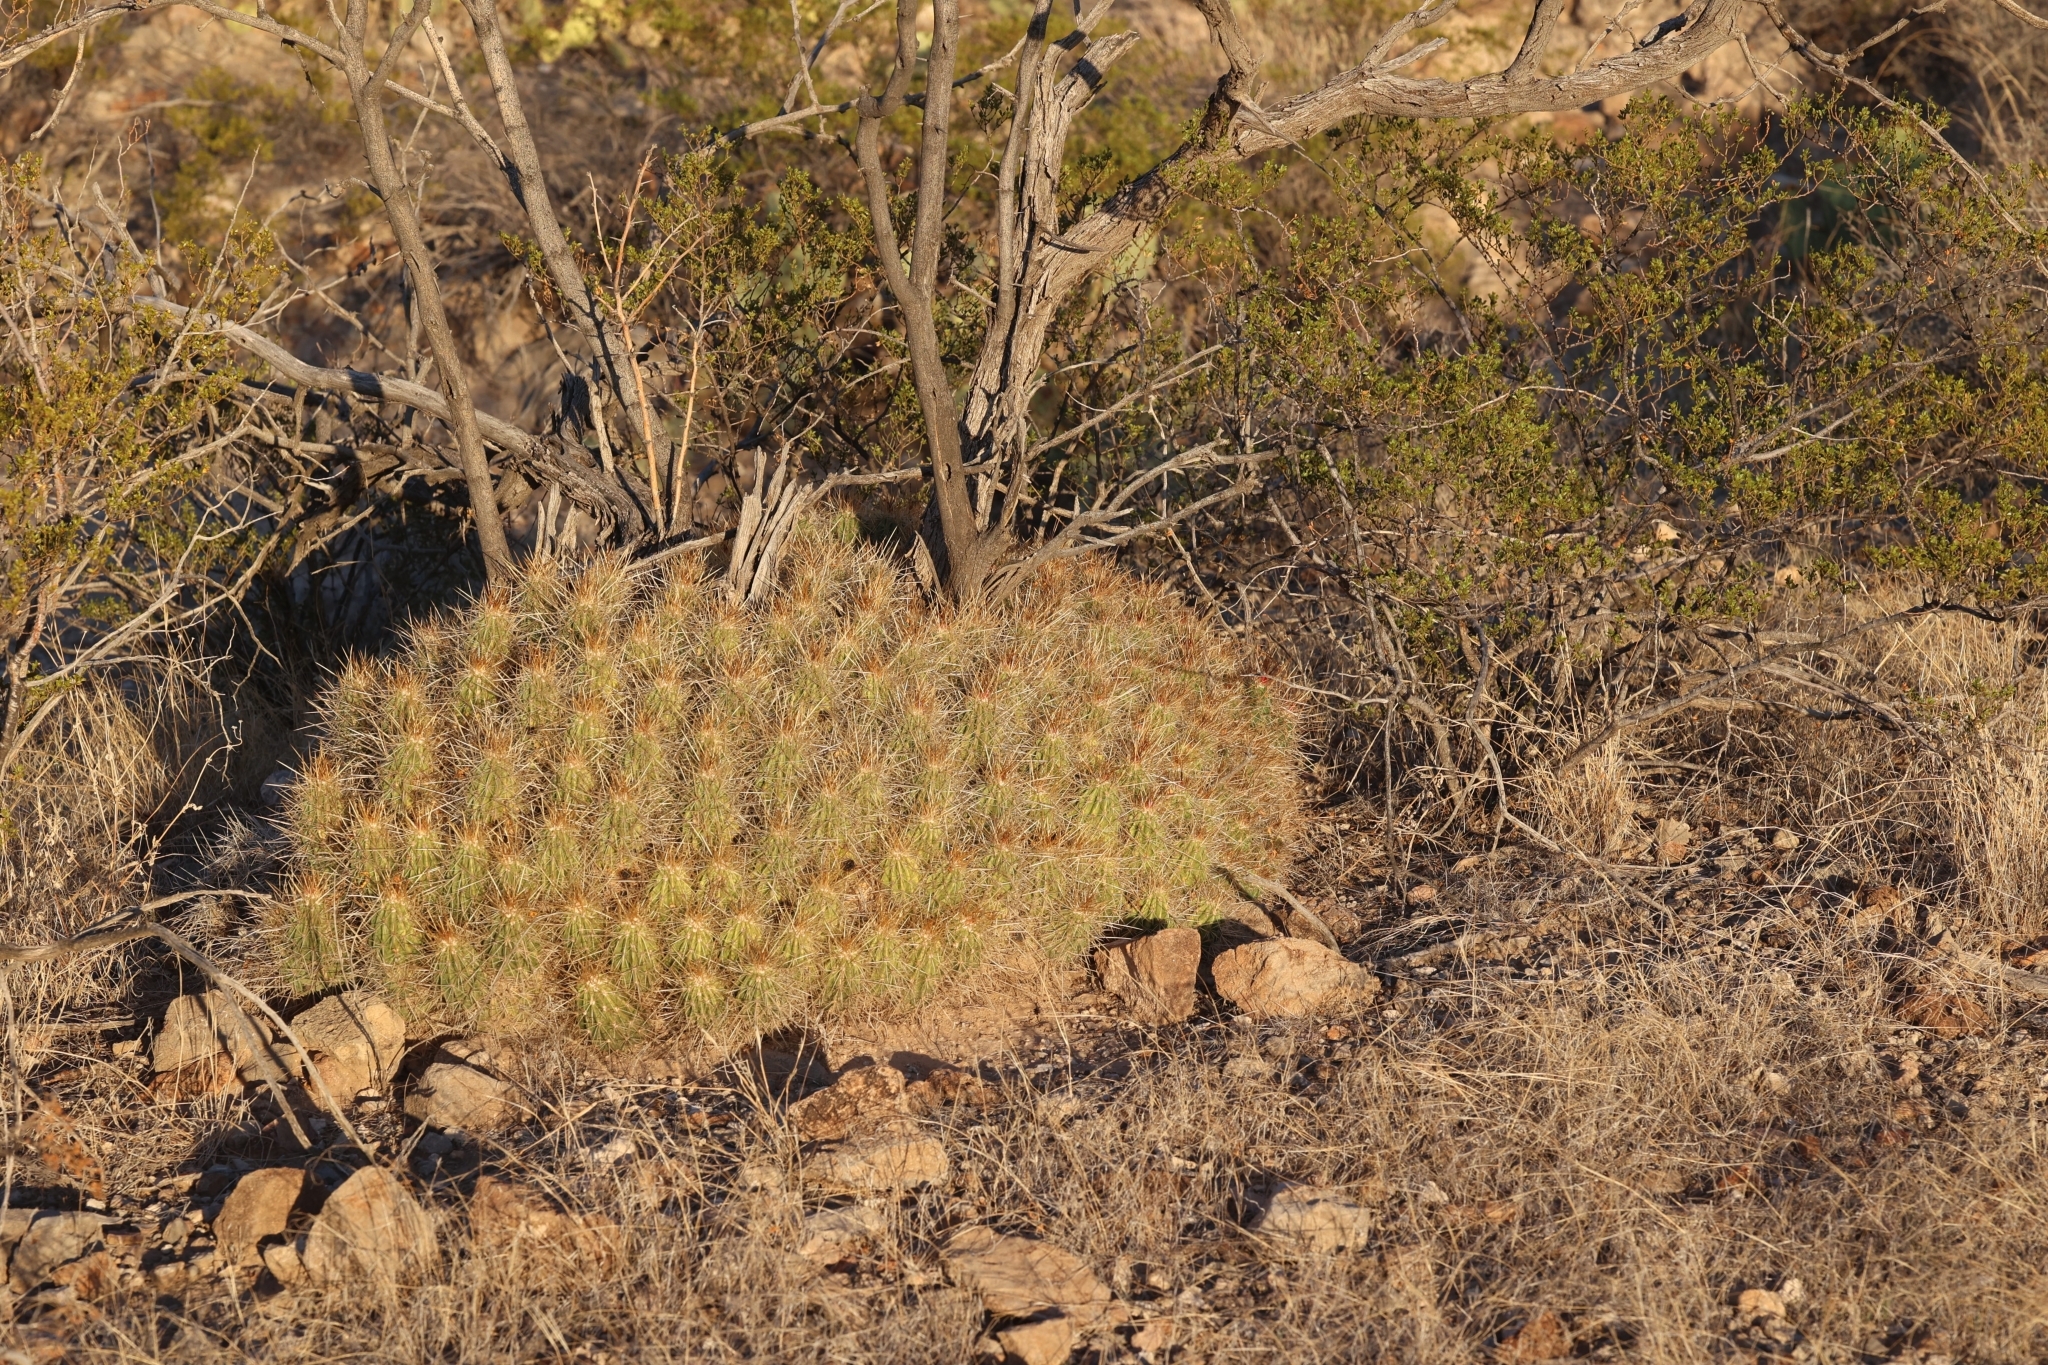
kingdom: Plantae
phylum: Tracheophyta
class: Magnoliopsida
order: Caryophyllales
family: Cactaceae
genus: Echinocereus
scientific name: Echinocereus stramineus
